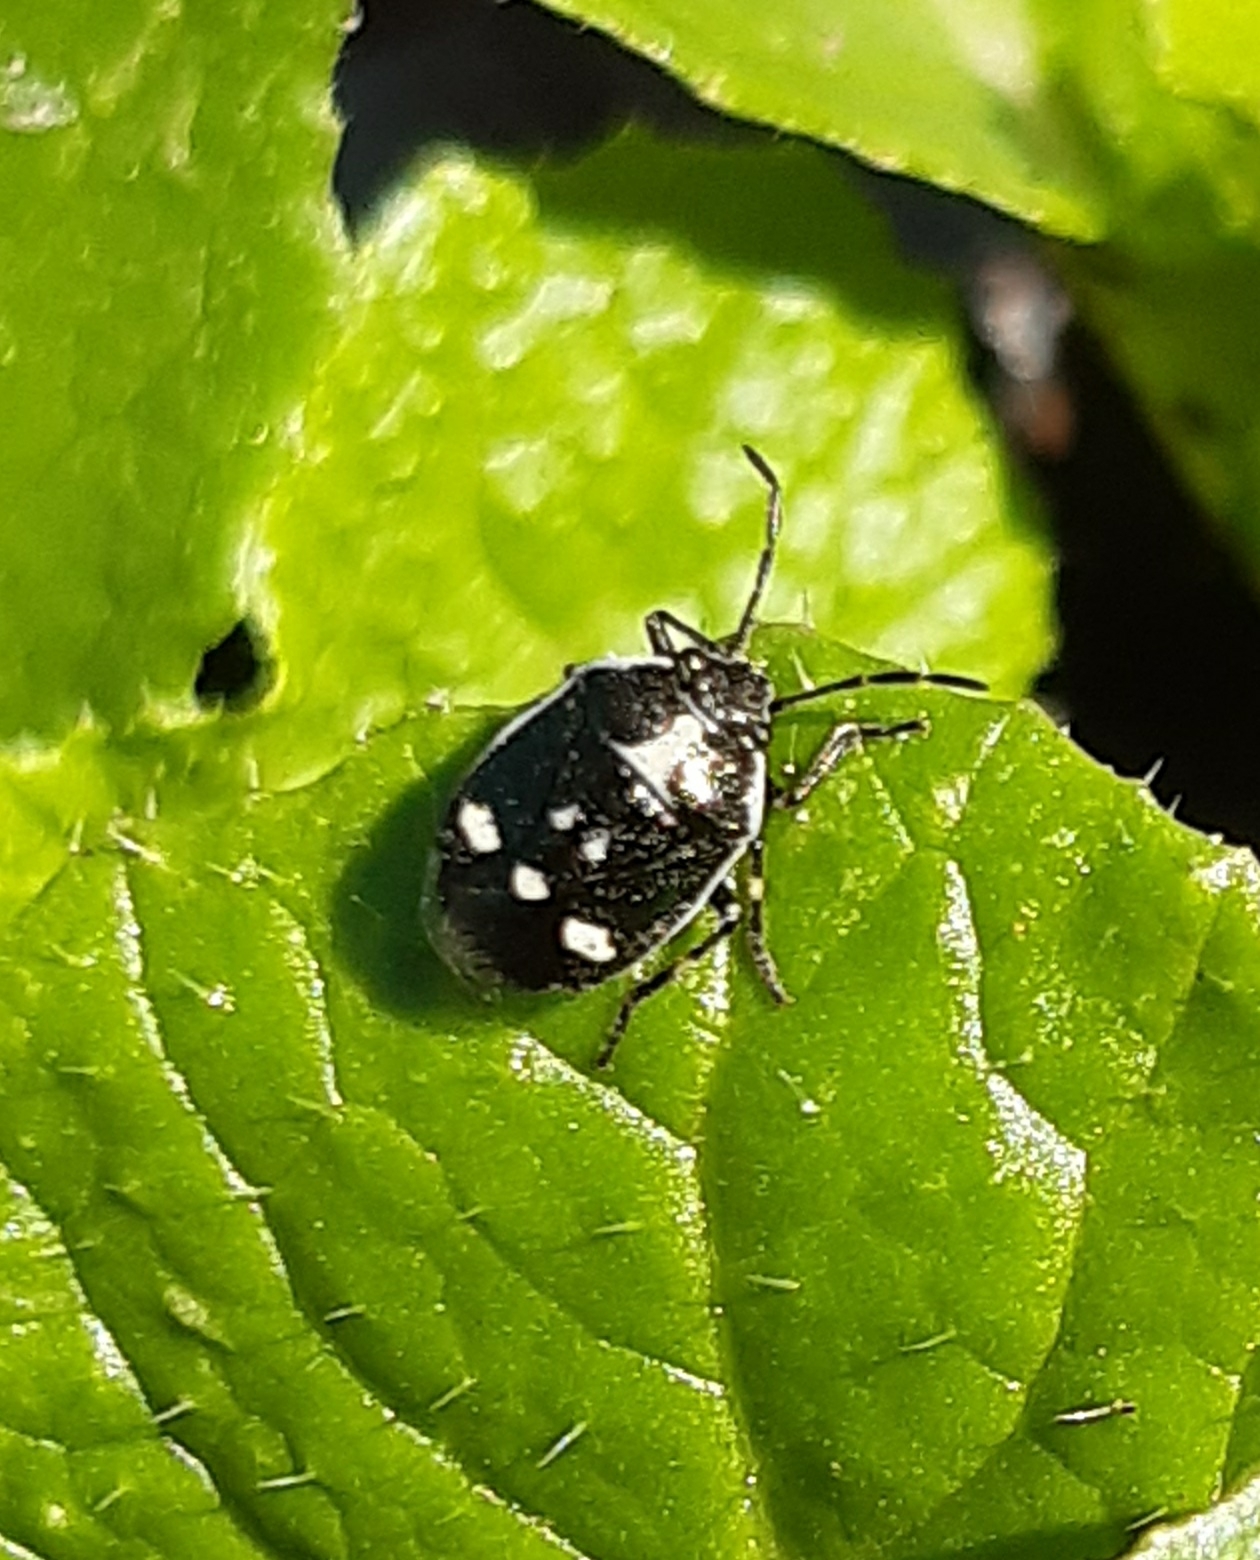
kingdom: Animalia
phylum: Arthropoda
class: Insecta
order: Hemiptera
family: Pentatomidae
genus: Eurydema
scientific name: Eurydema oleracea
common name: Cabbage bug
